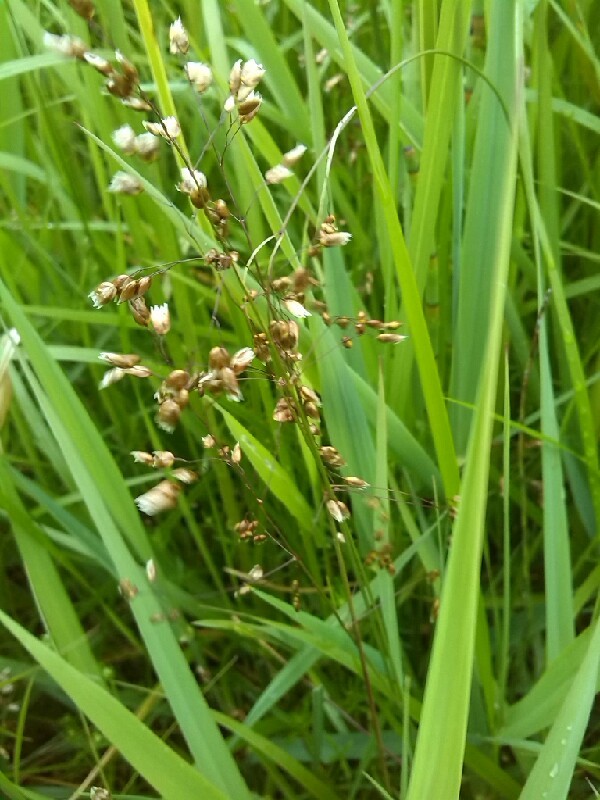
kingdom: Plantae
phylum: Tracheophyta
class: Liliopsida
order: Poales
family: Poaceae
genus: Anthoxanthum
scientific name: Anthoxanthum nitens
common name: Holy grass
